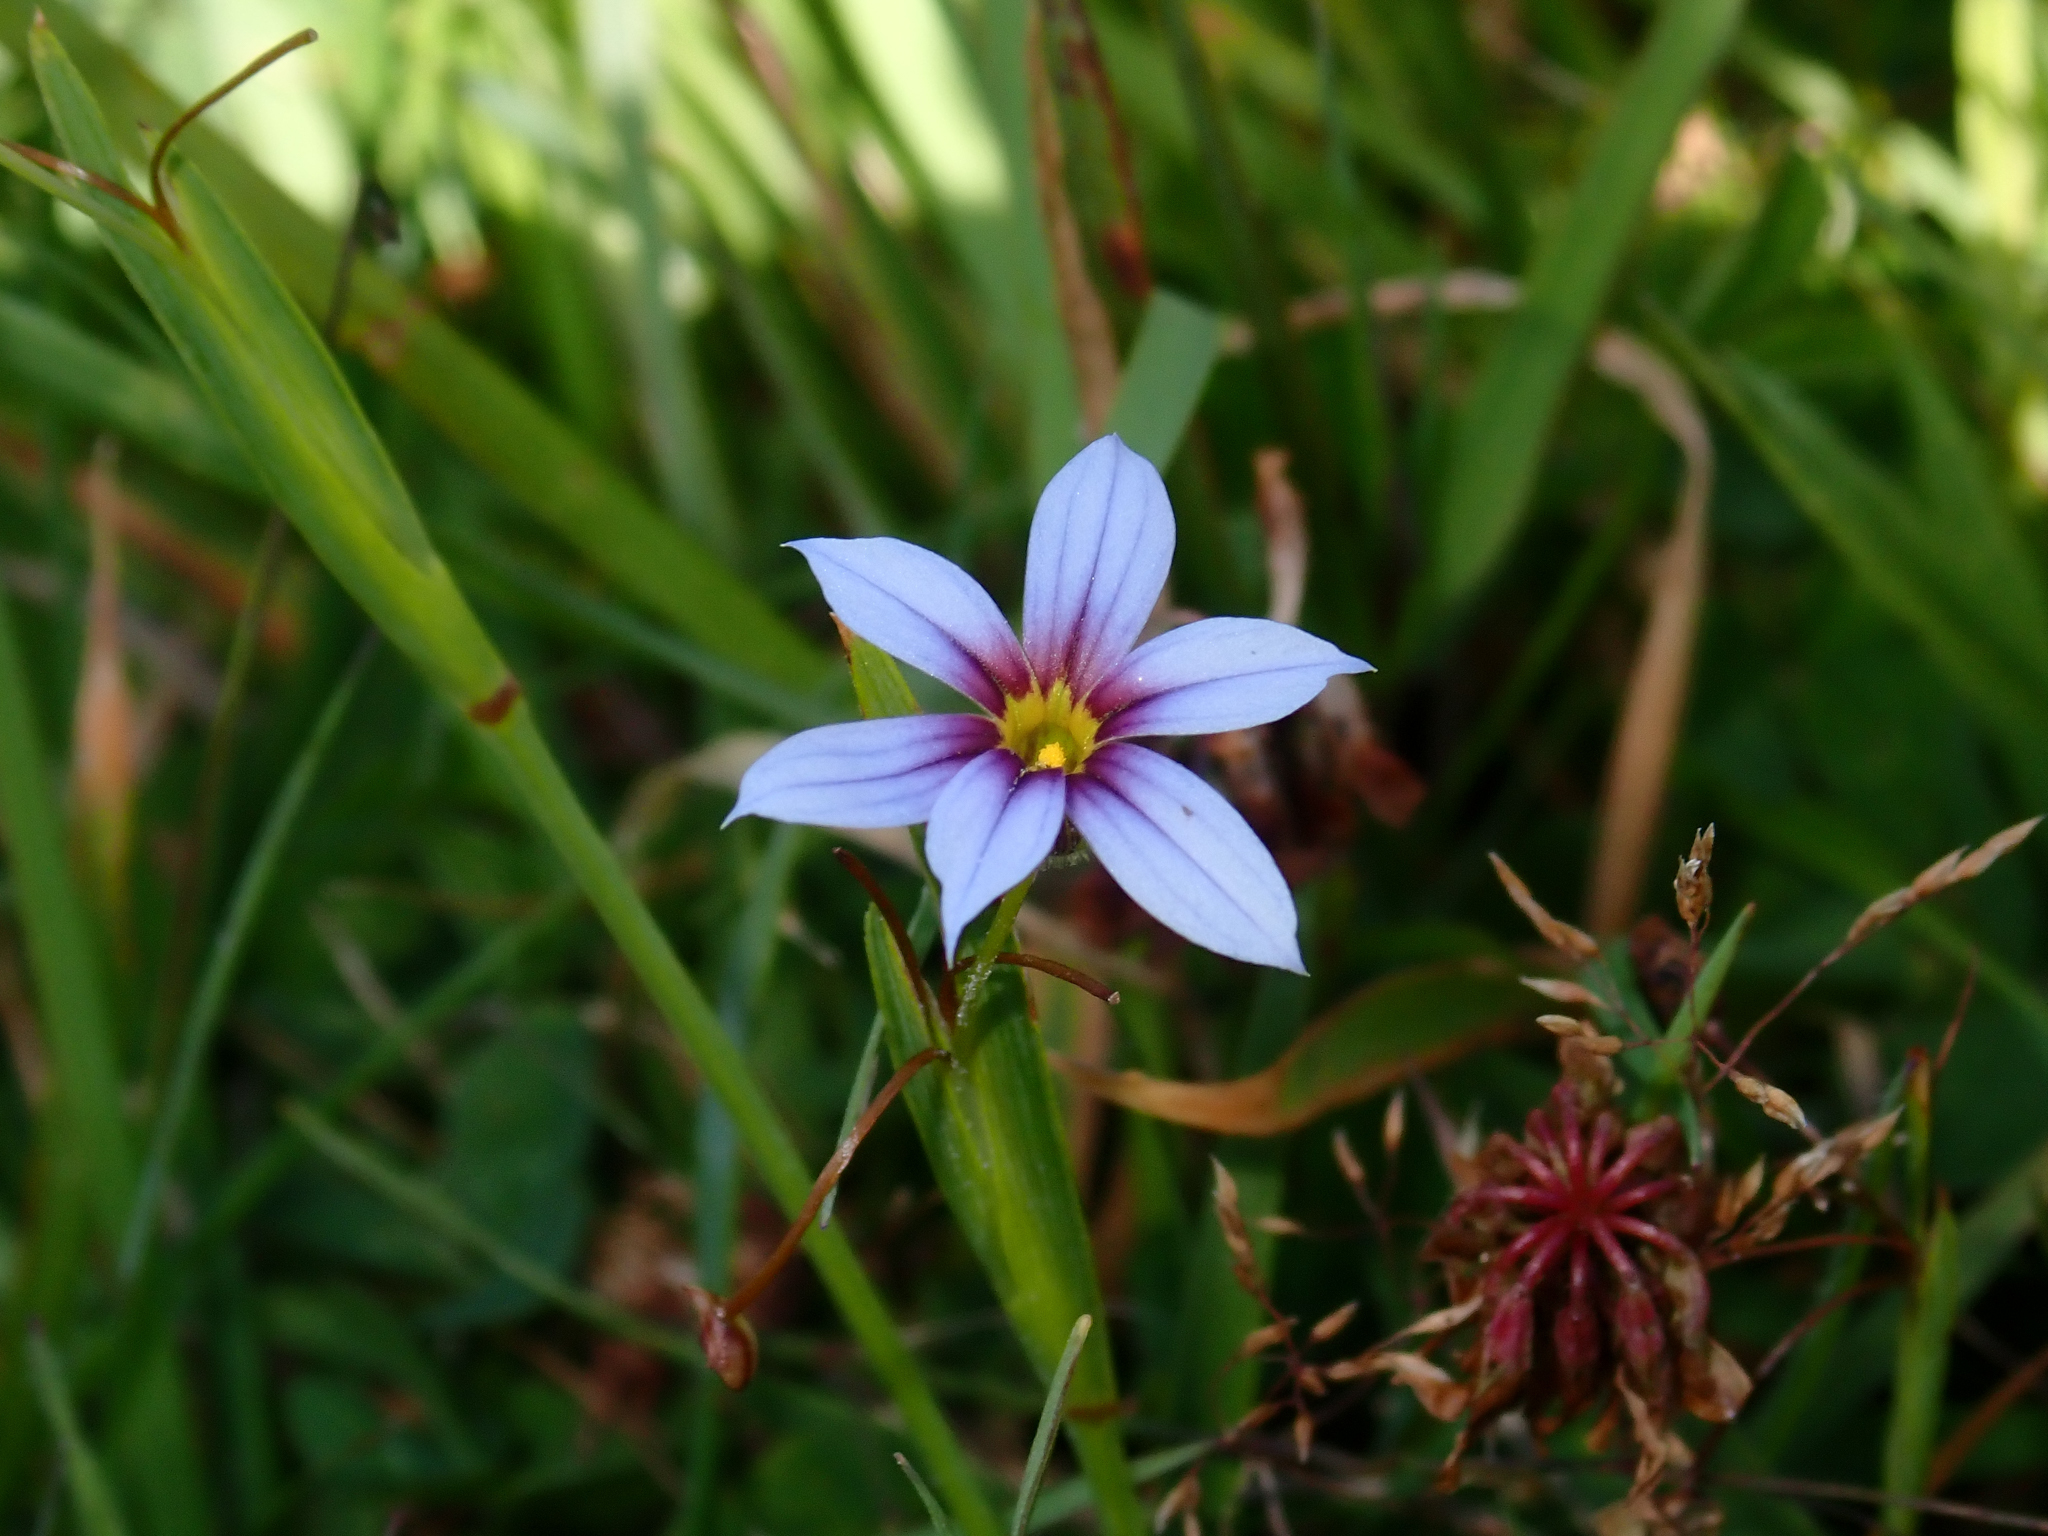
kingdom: Plantae
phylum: Tracheophyta
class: Liliopsida
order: Asparagales
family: Iridaceae
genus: Sisyrinchium
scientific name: Sisyrinchium micranthum
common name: Bermuda pigroot
